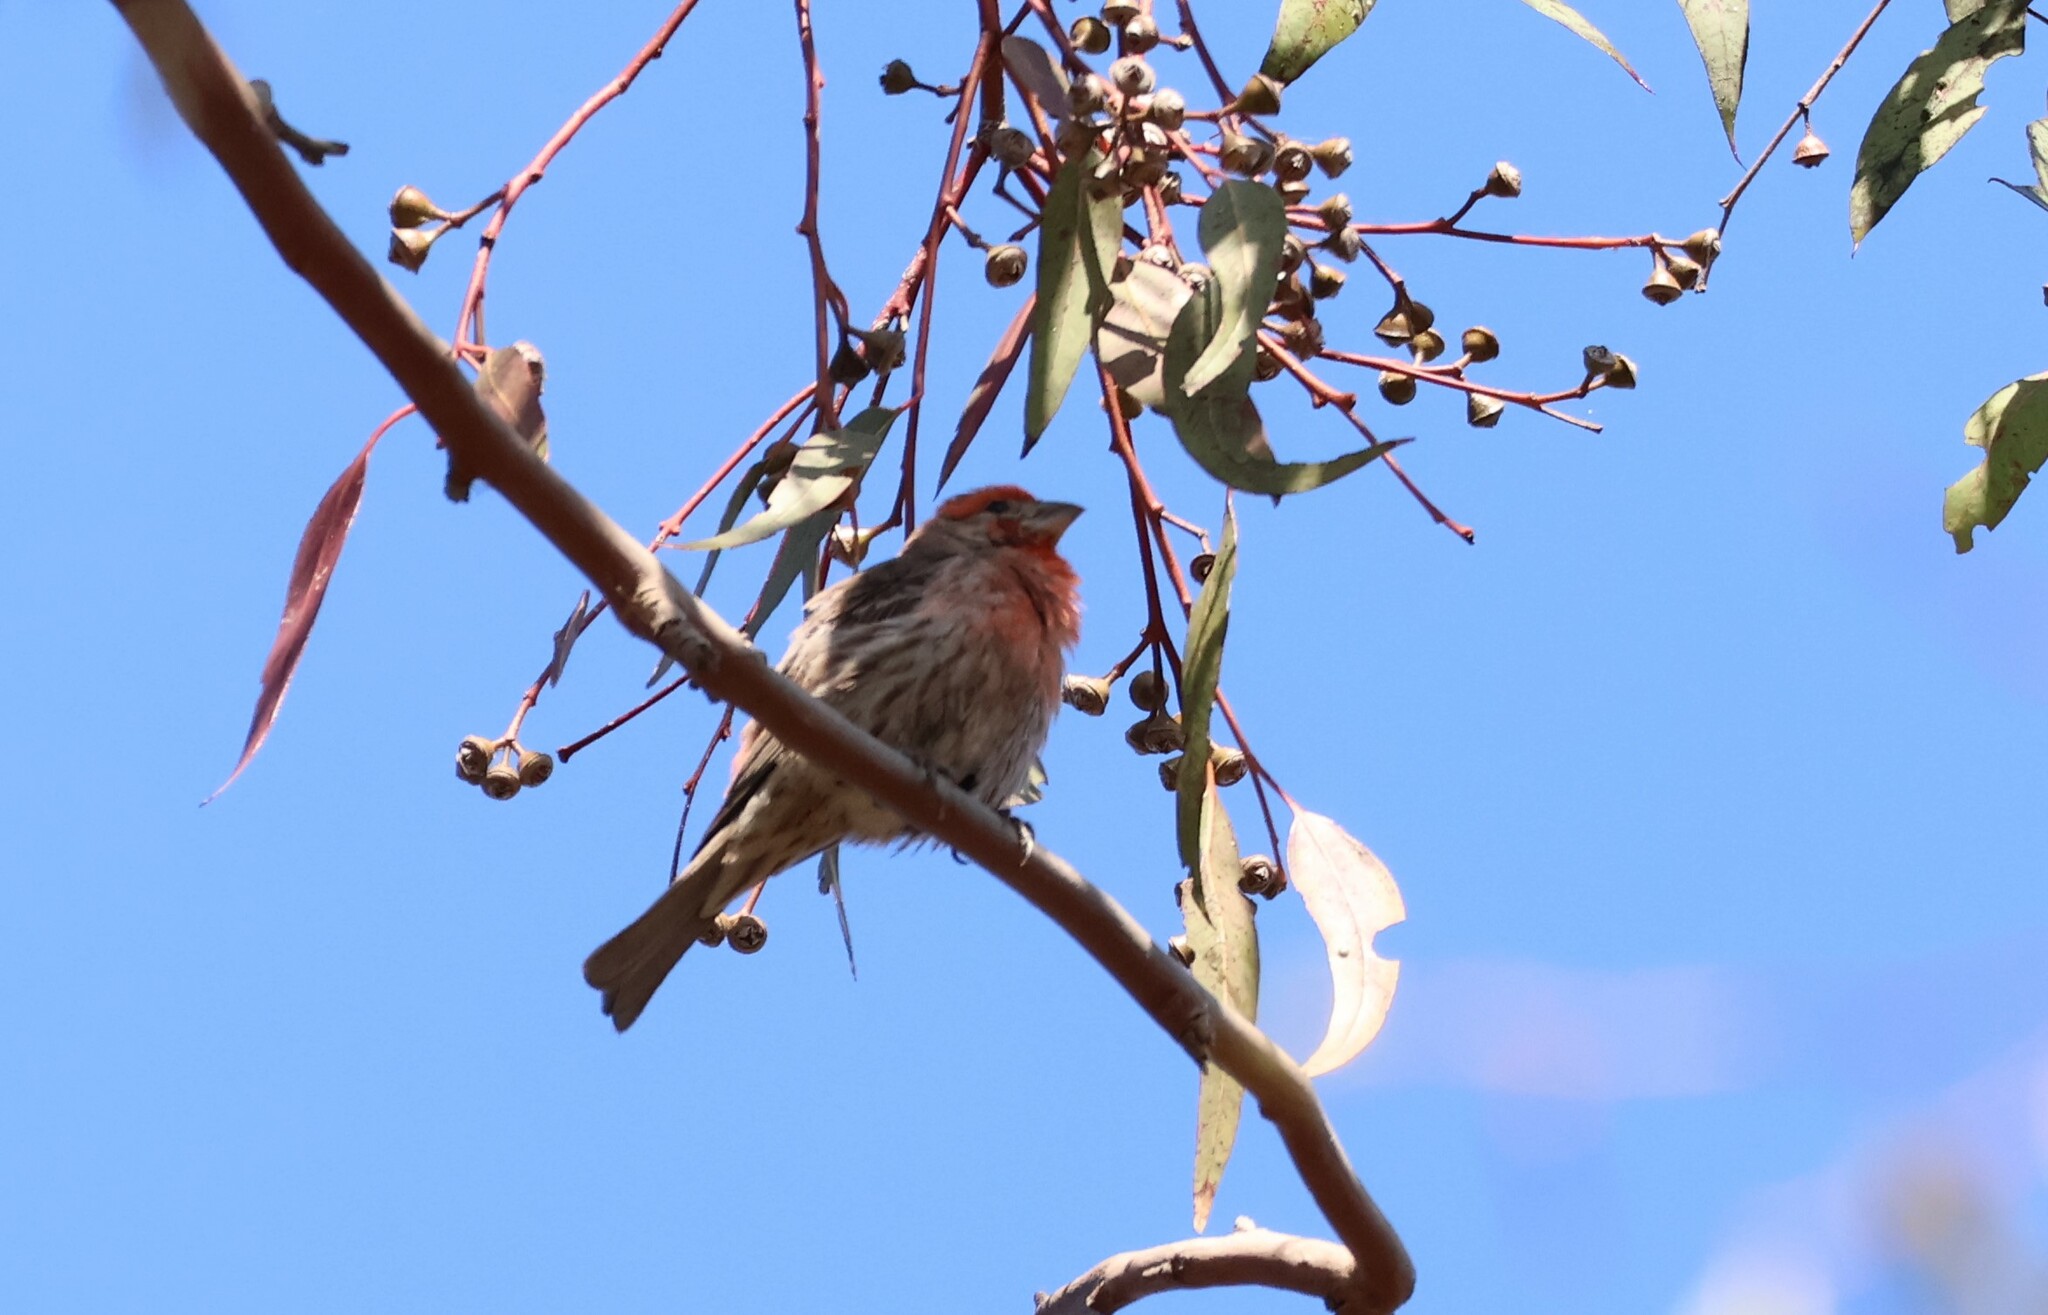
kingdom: Animalia
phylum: Chordata
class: Aves
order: Passeriformes
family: Fringillidae
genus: Haemorhous
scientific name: Haemorhous mexicanus
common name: House finch
